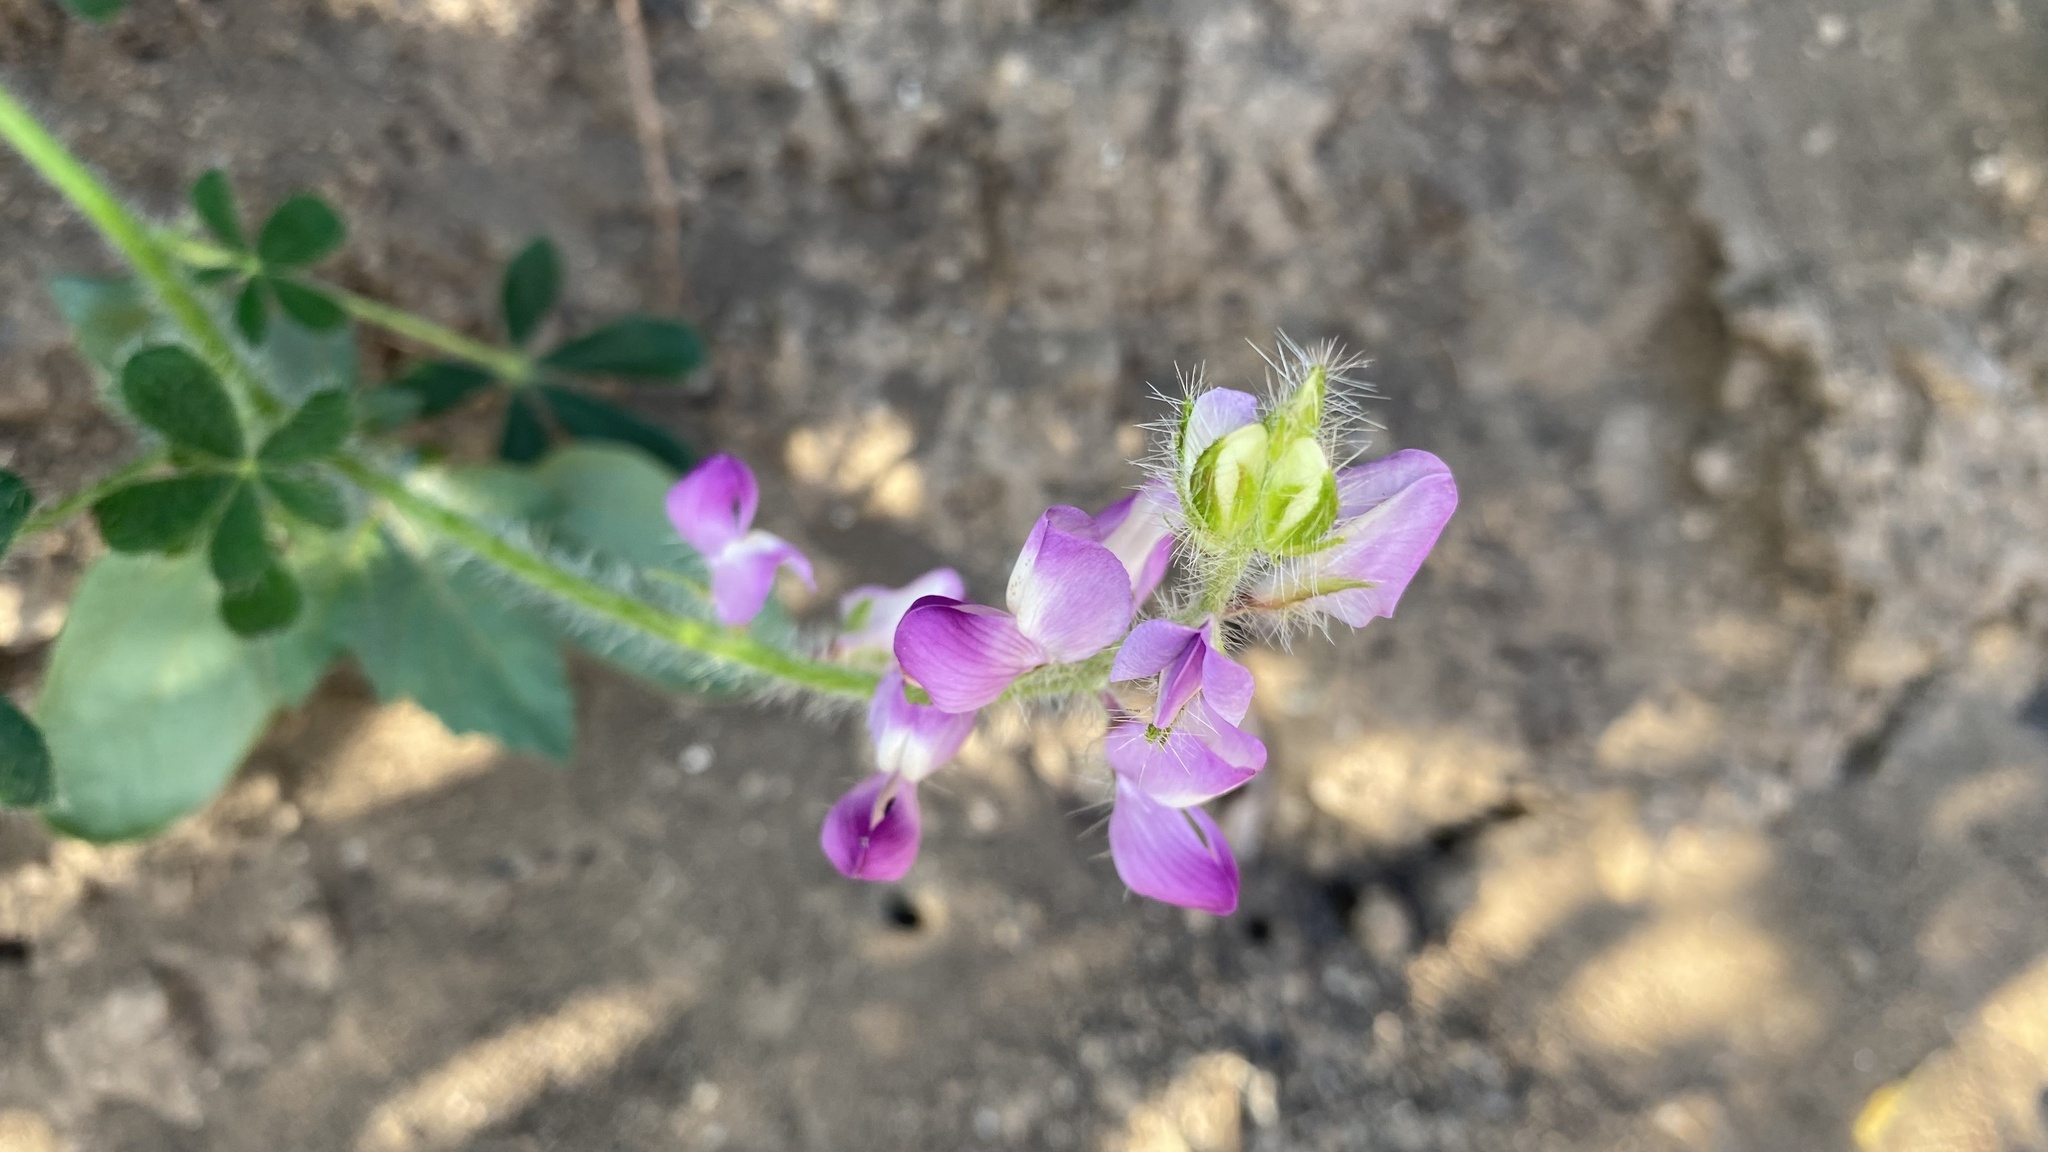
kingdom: Plantae
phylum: Tracheophyta
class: Magnoliopsida
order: Fabales
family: Fabaceae
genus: Lupinus
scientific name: Lupinus hirsutissimus
